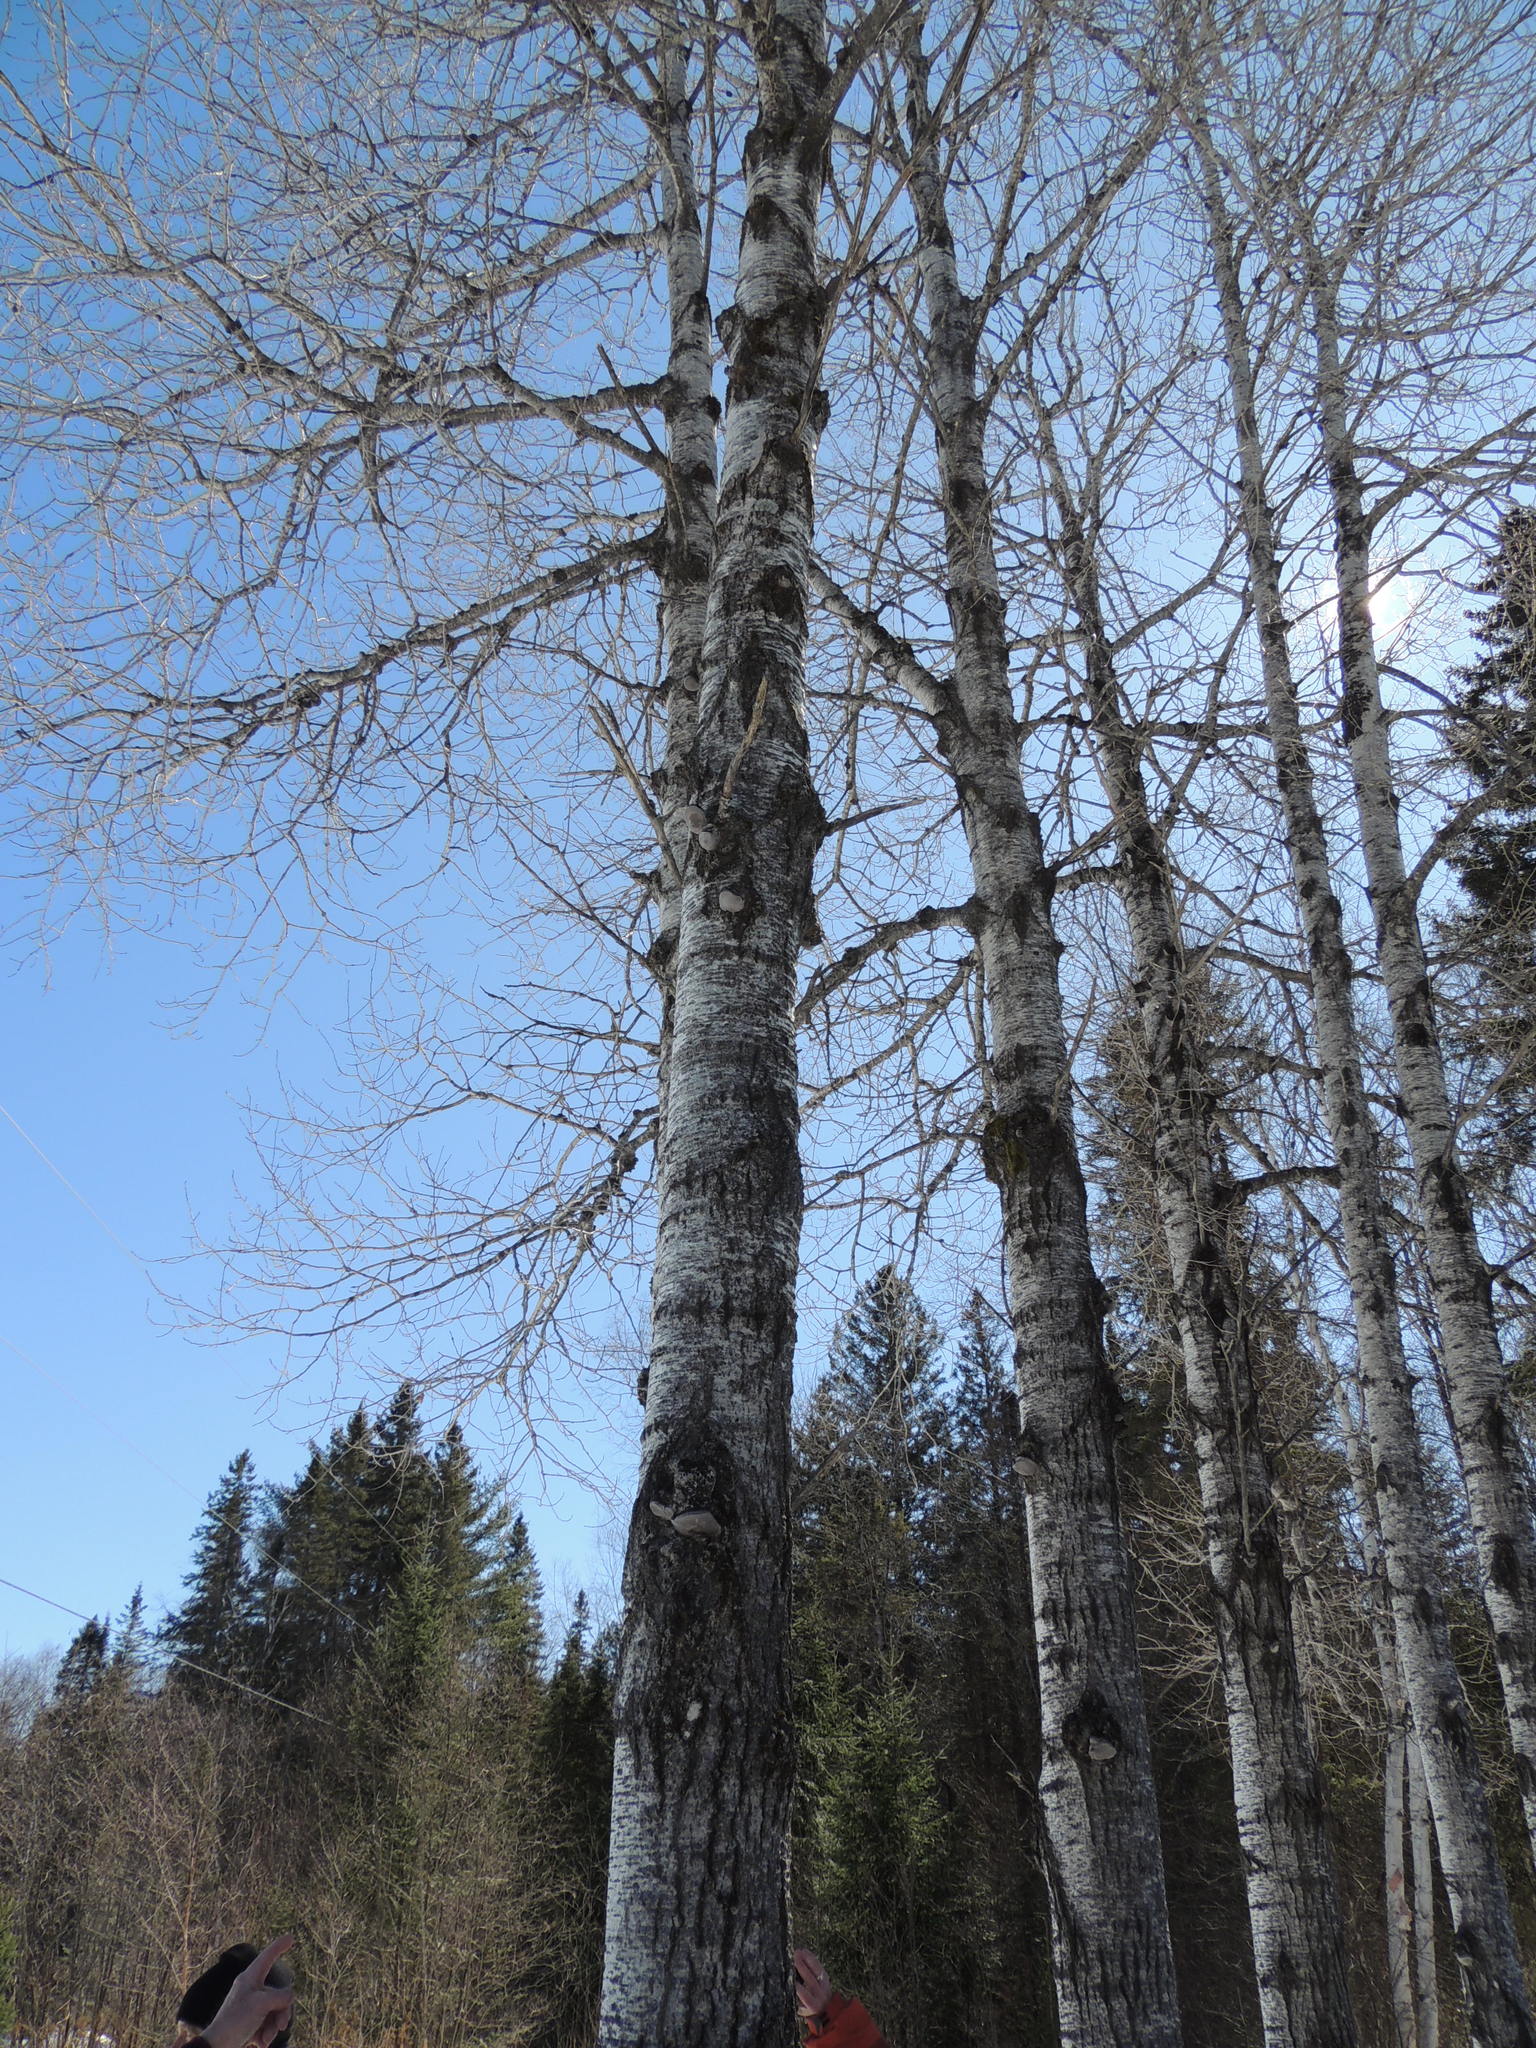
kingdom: Plantae
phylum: Tracheophyta
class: Magnoliopsida
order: Malpighiales
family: Salicaceae
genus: Populus
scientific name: Populus tremuloides
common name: Quaking aspen
